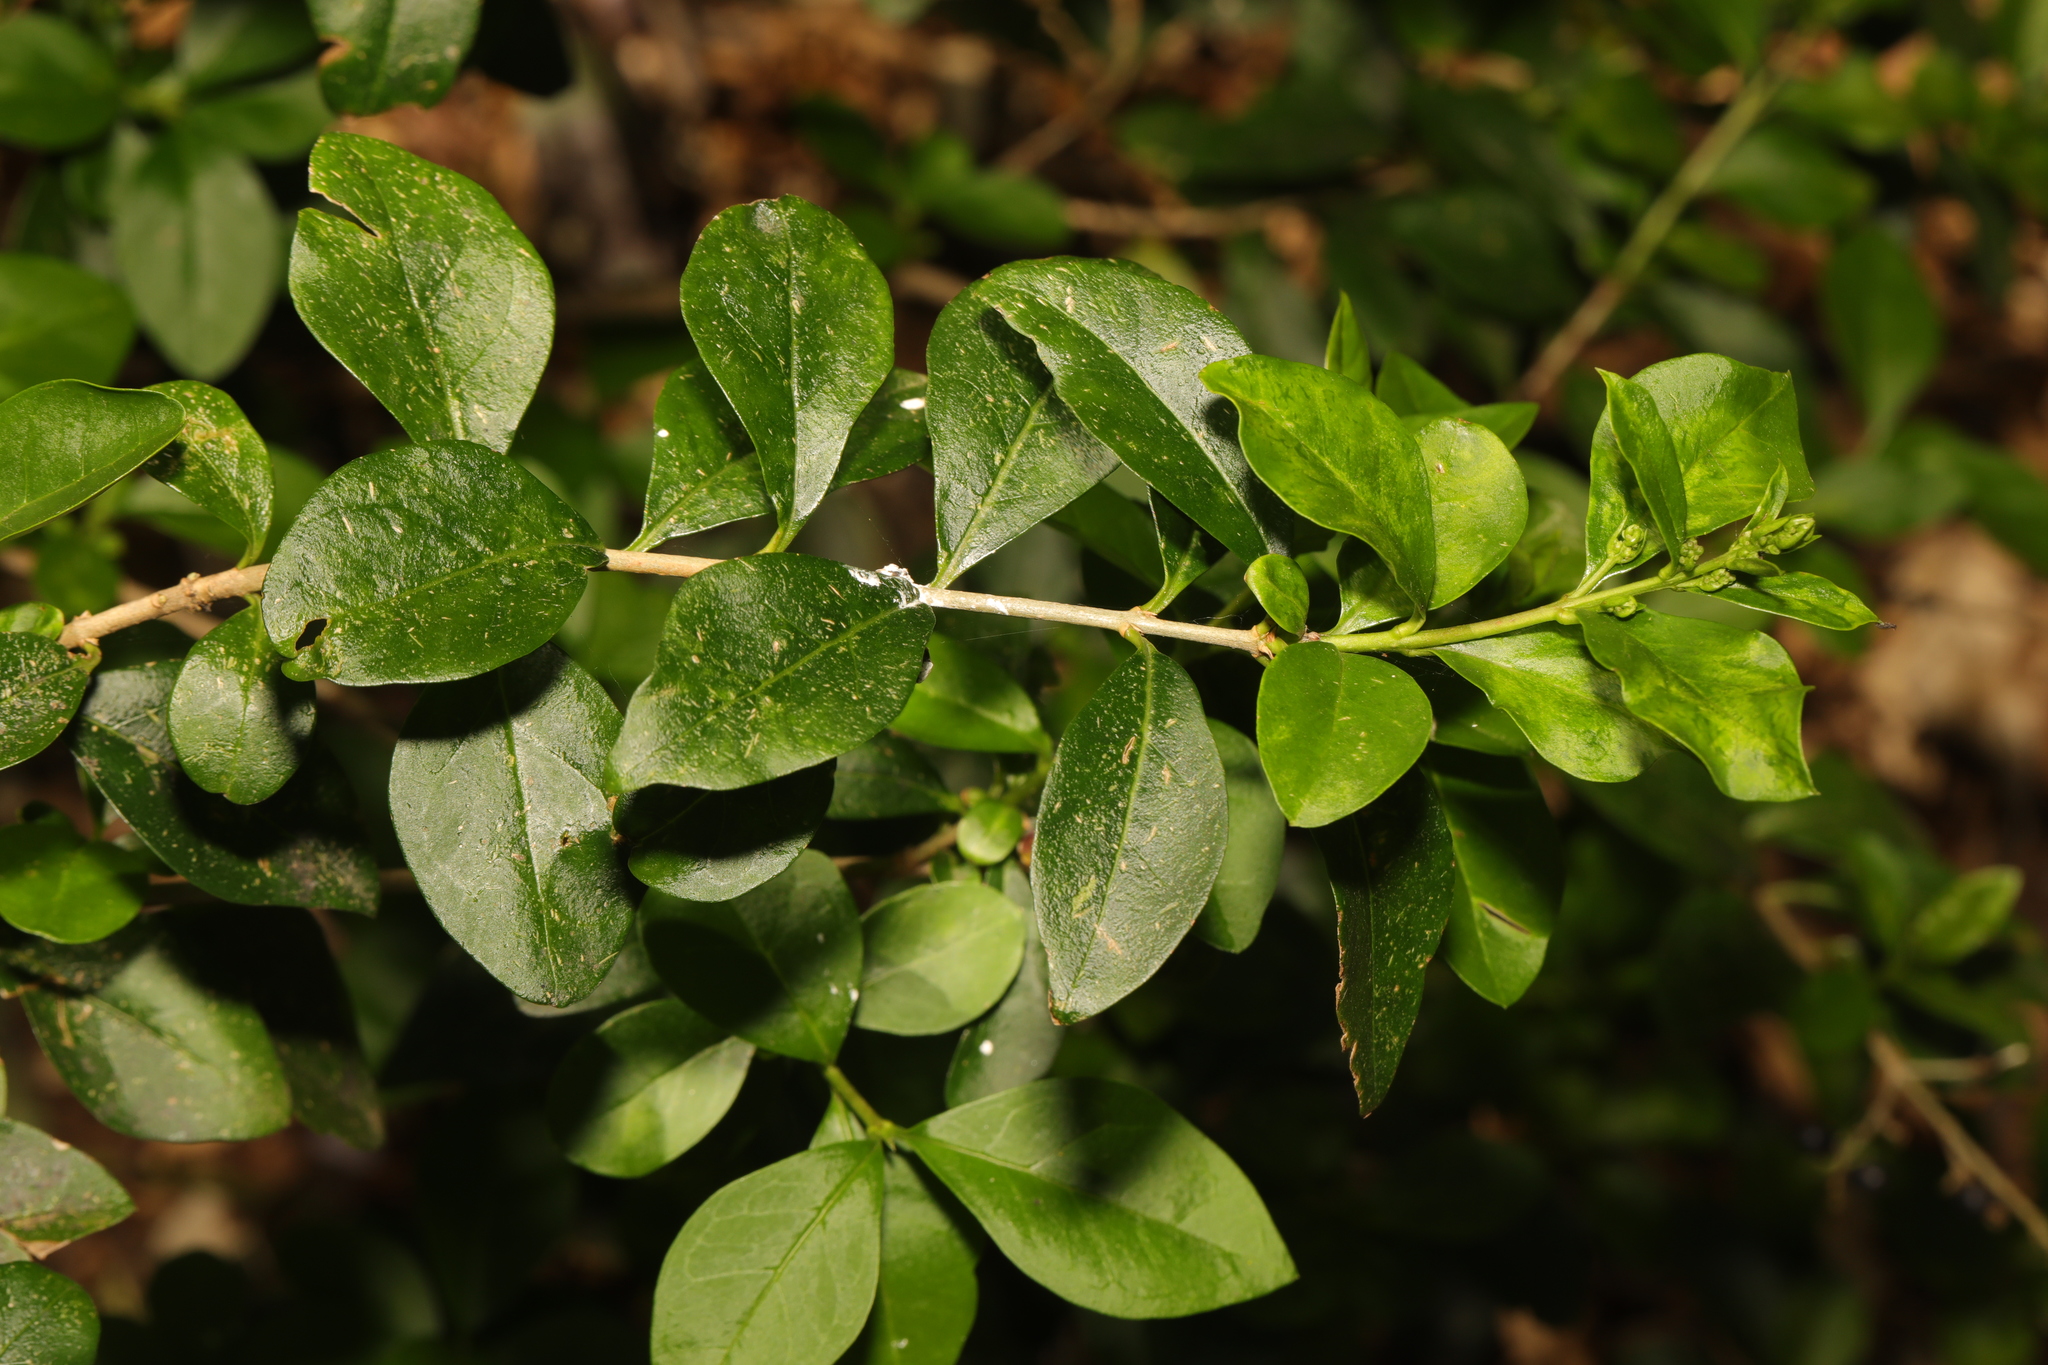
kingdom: Plantae
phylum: Tracheophyta
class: Magnoliopsida
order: Lamiales
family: Oleaceae
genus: Ligustrum
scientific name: Ligustrum ovalifolium
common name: California privet
